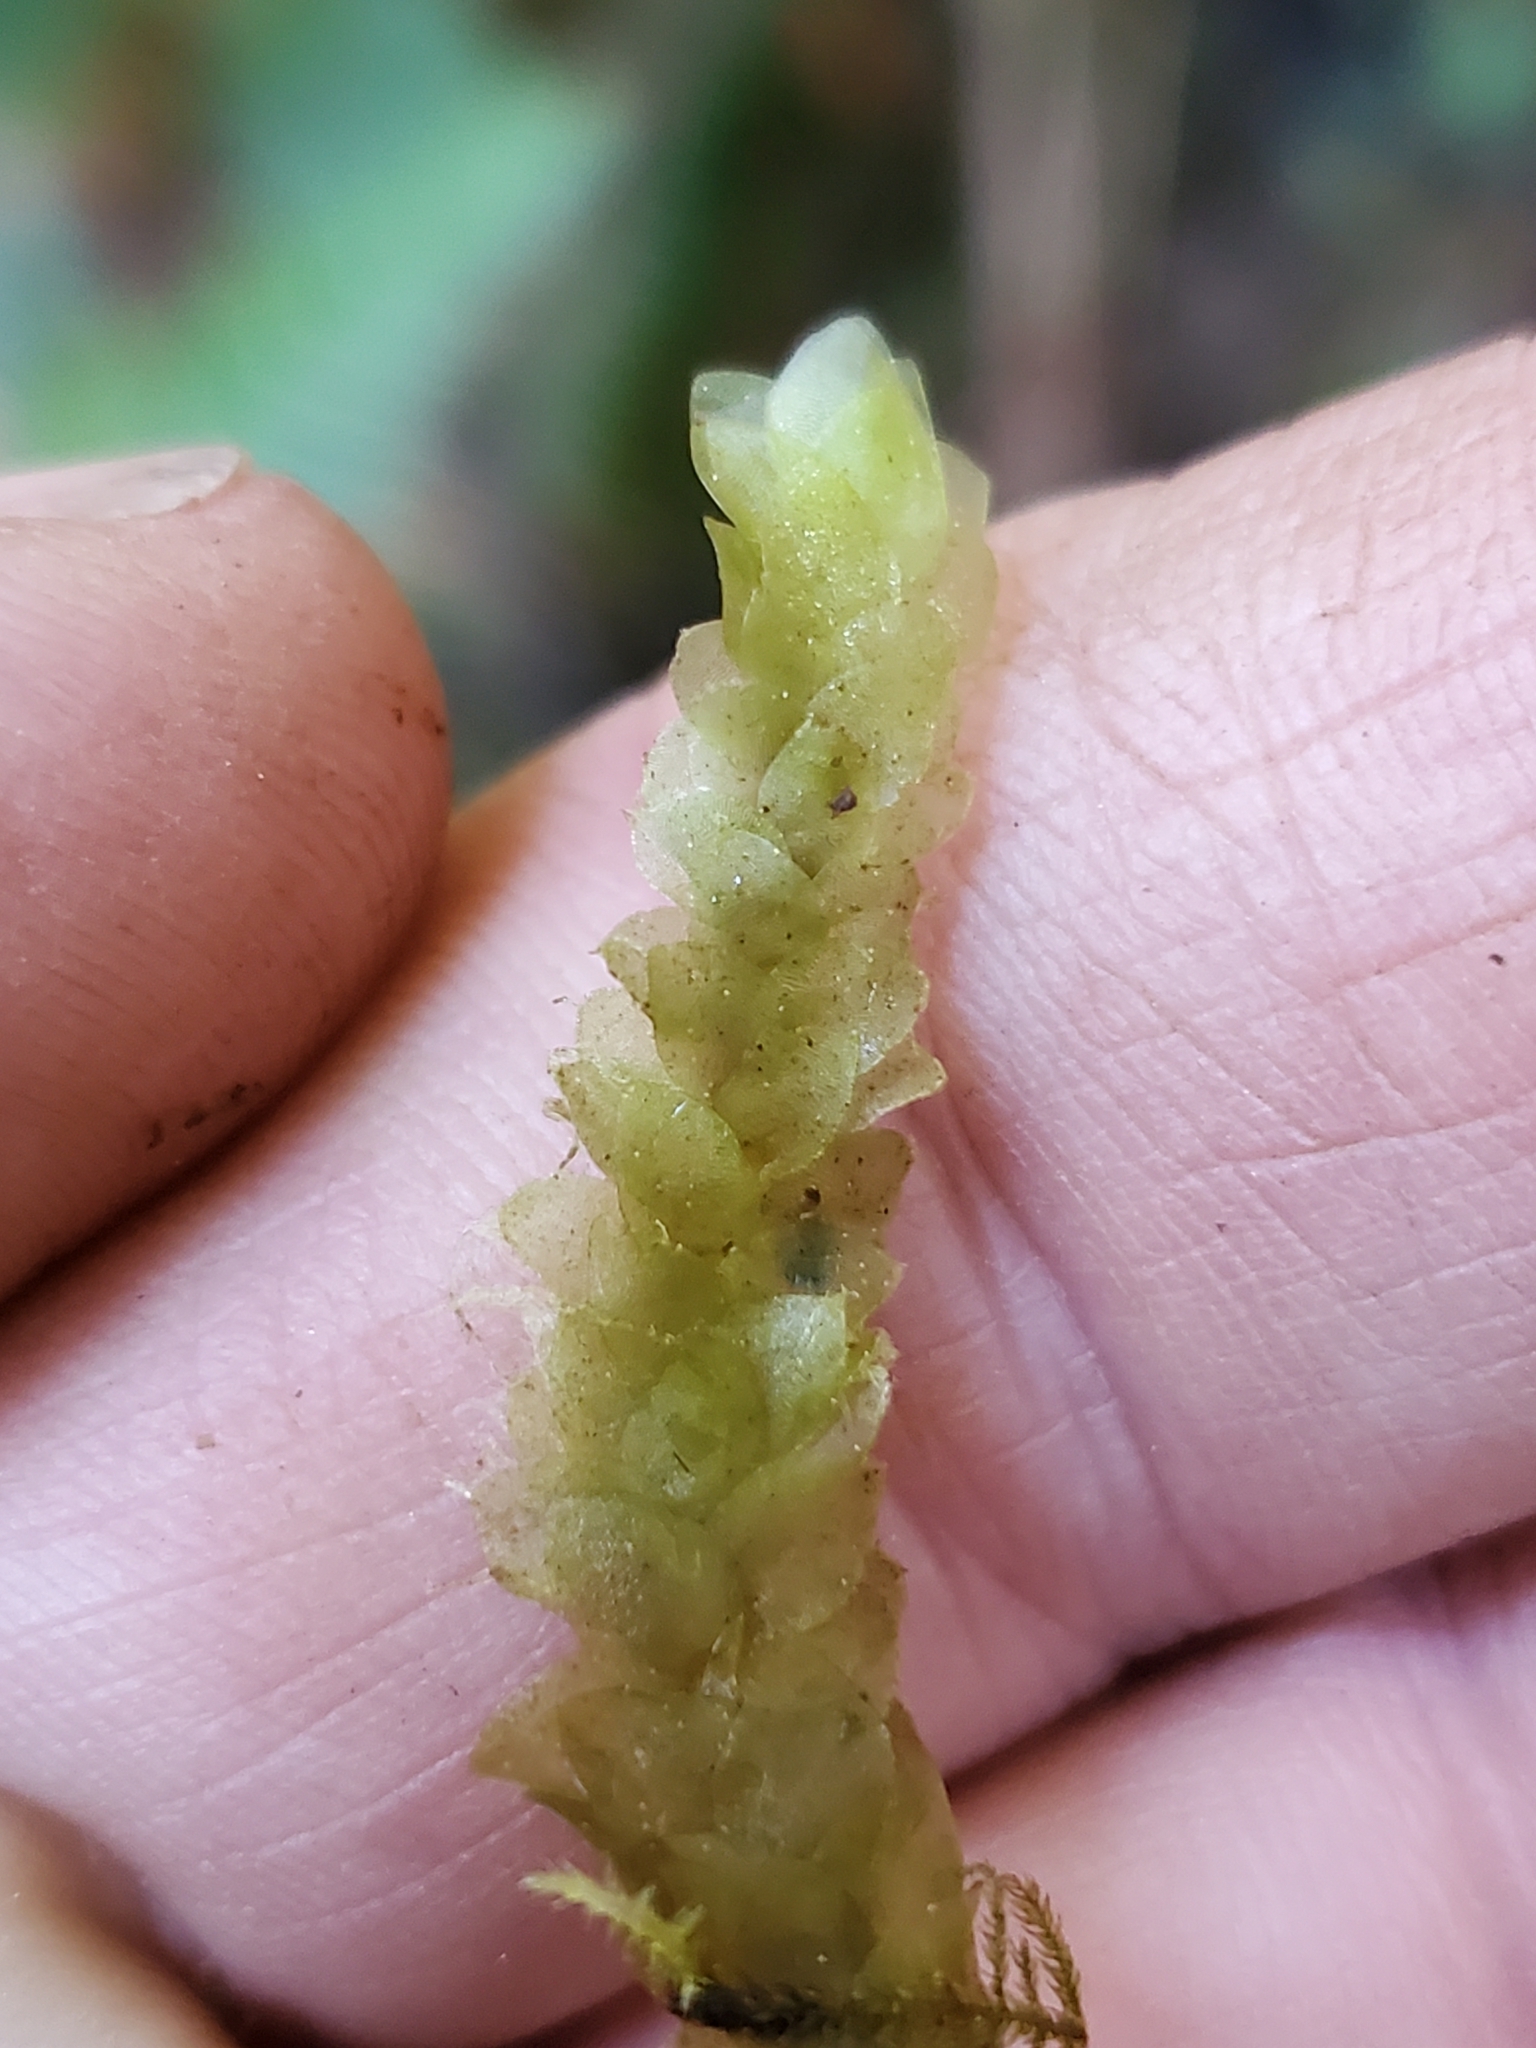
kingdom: Plantae
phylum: Bryophyta
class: Bryopsida
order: Hookeriales
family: Hookeriaceae
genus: Hookeria
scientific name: Hookeria lucens
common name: Shining hookeria
